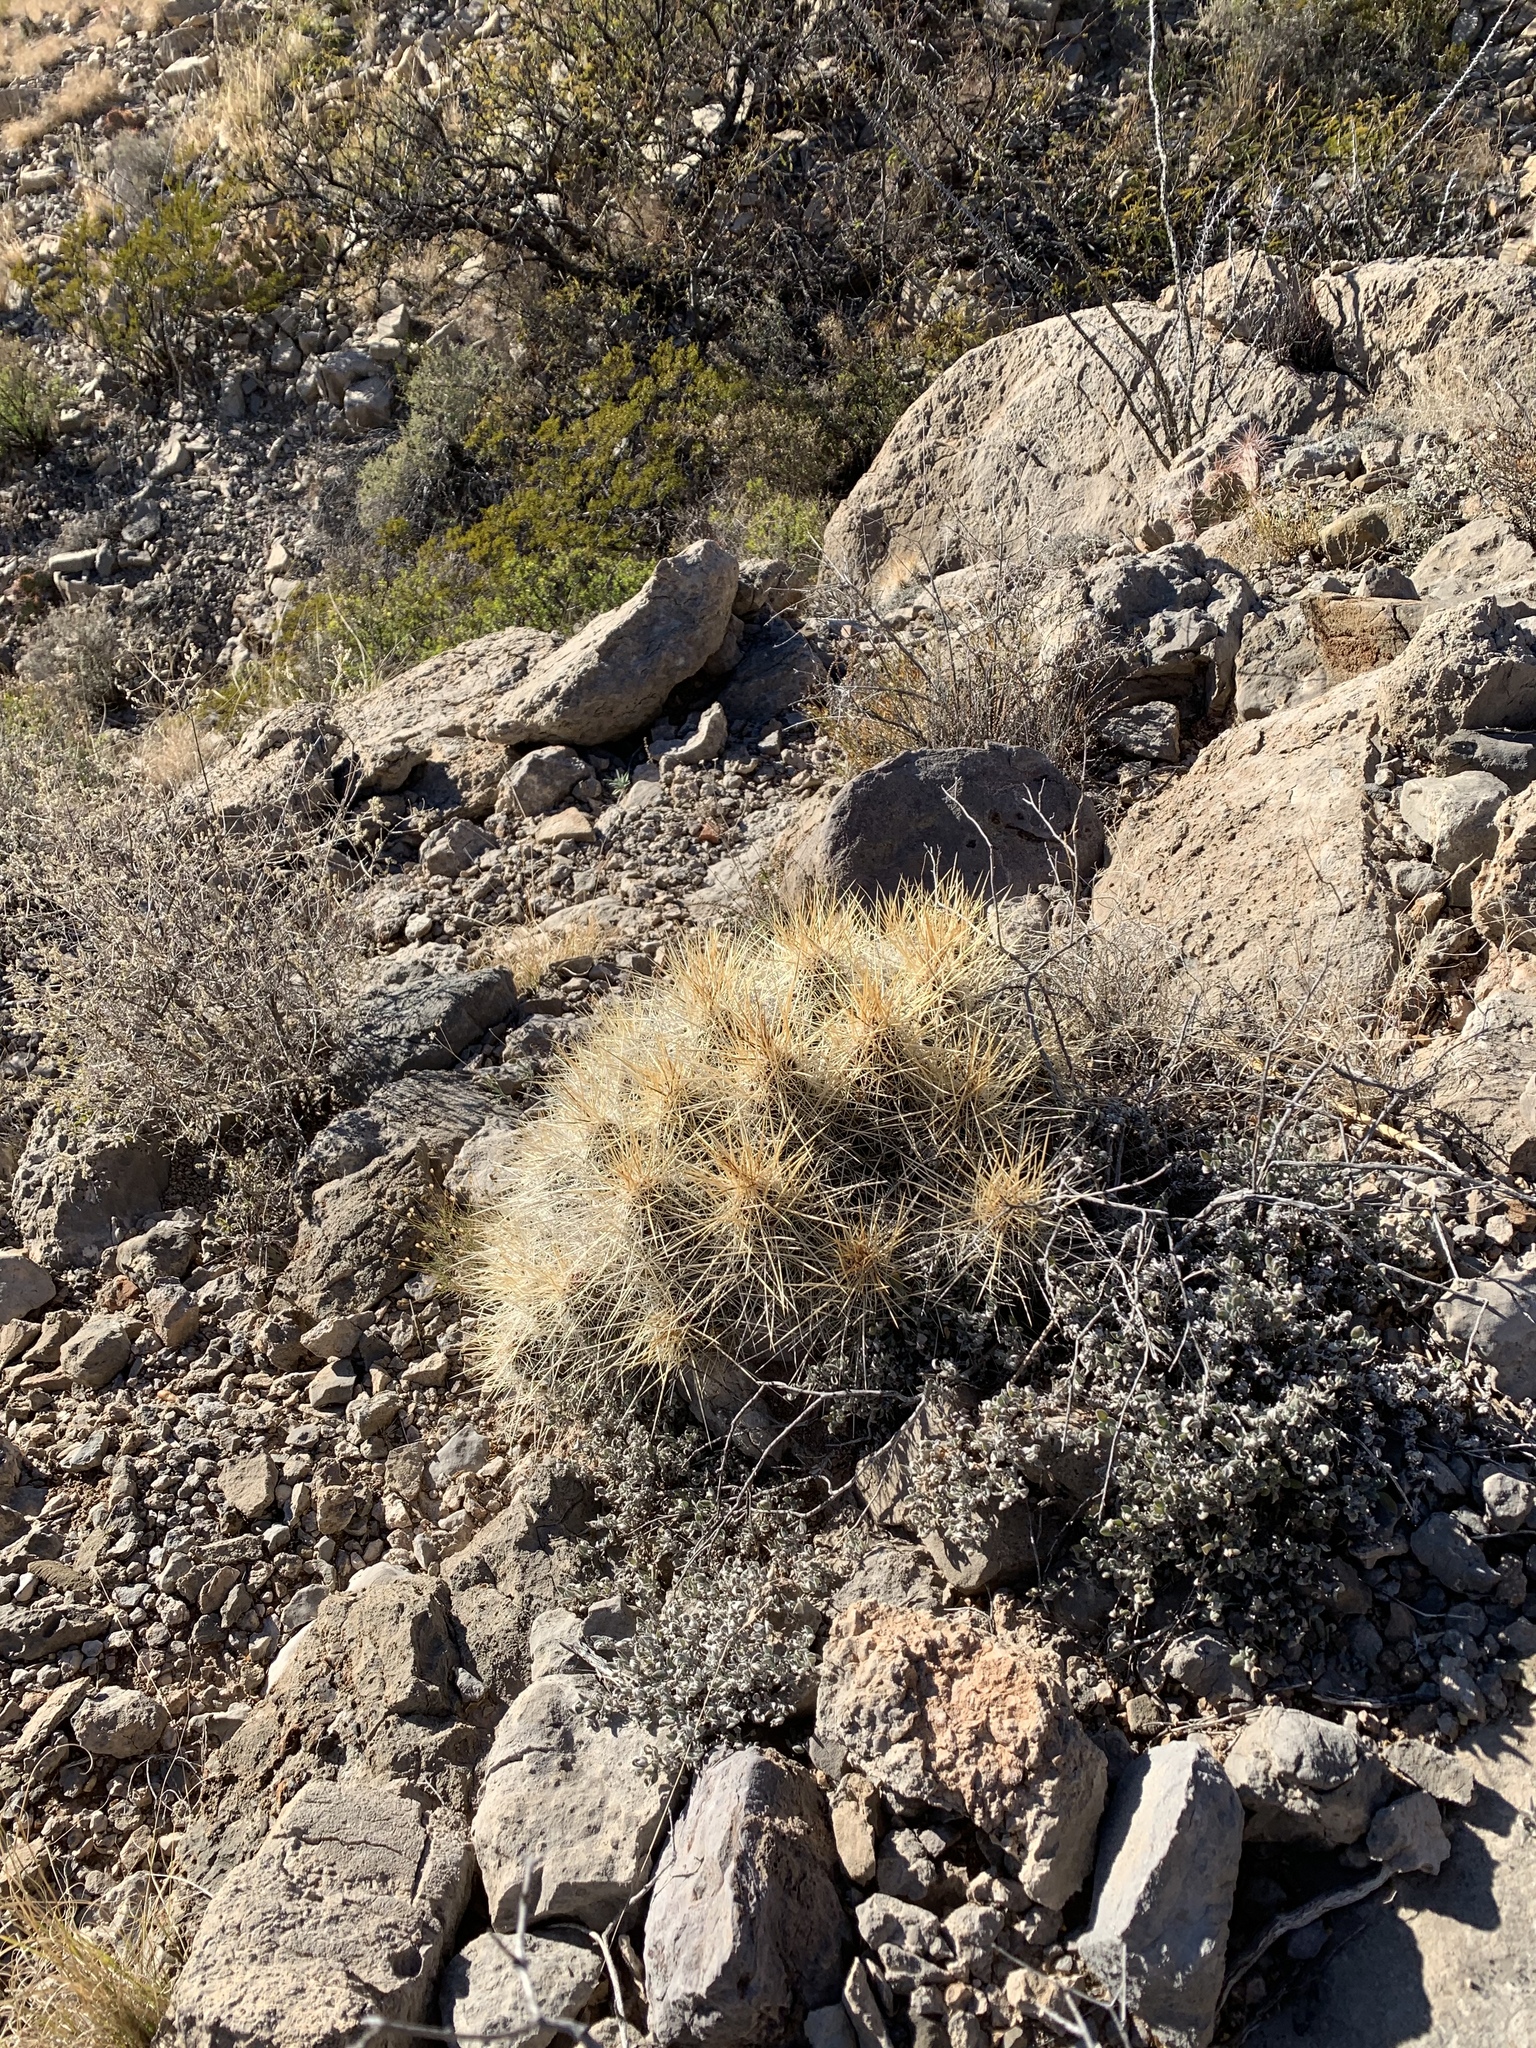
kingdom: Plantae
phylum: Tracheophyta
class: Magnoliopsida
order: Caryophyllales
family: Cactaceae
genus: Echinocereus
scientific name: Echinocereus stramineus
